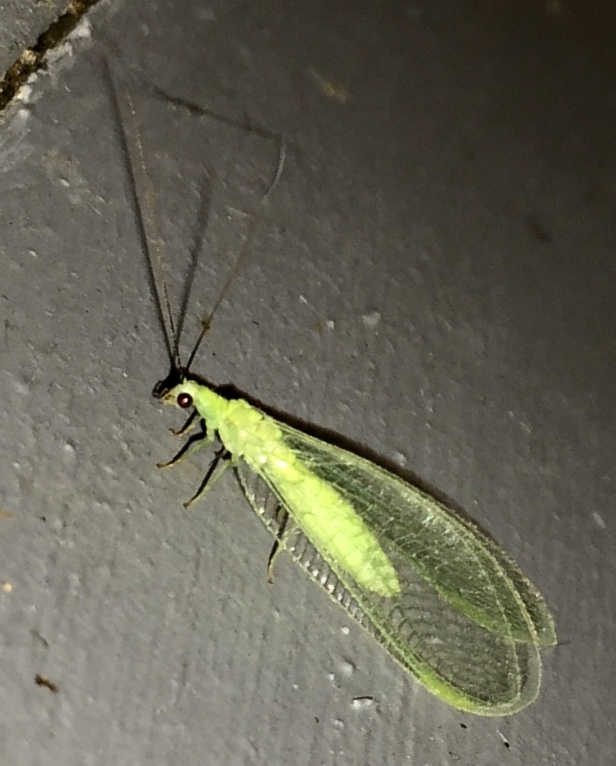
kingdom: Animalia
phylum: Arthropoda
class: Insecta
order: Neuroptera
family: Chrysopidae
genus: Chrysopa
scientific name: Chrysopa nigricornis
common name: Black-horned green lacewing
